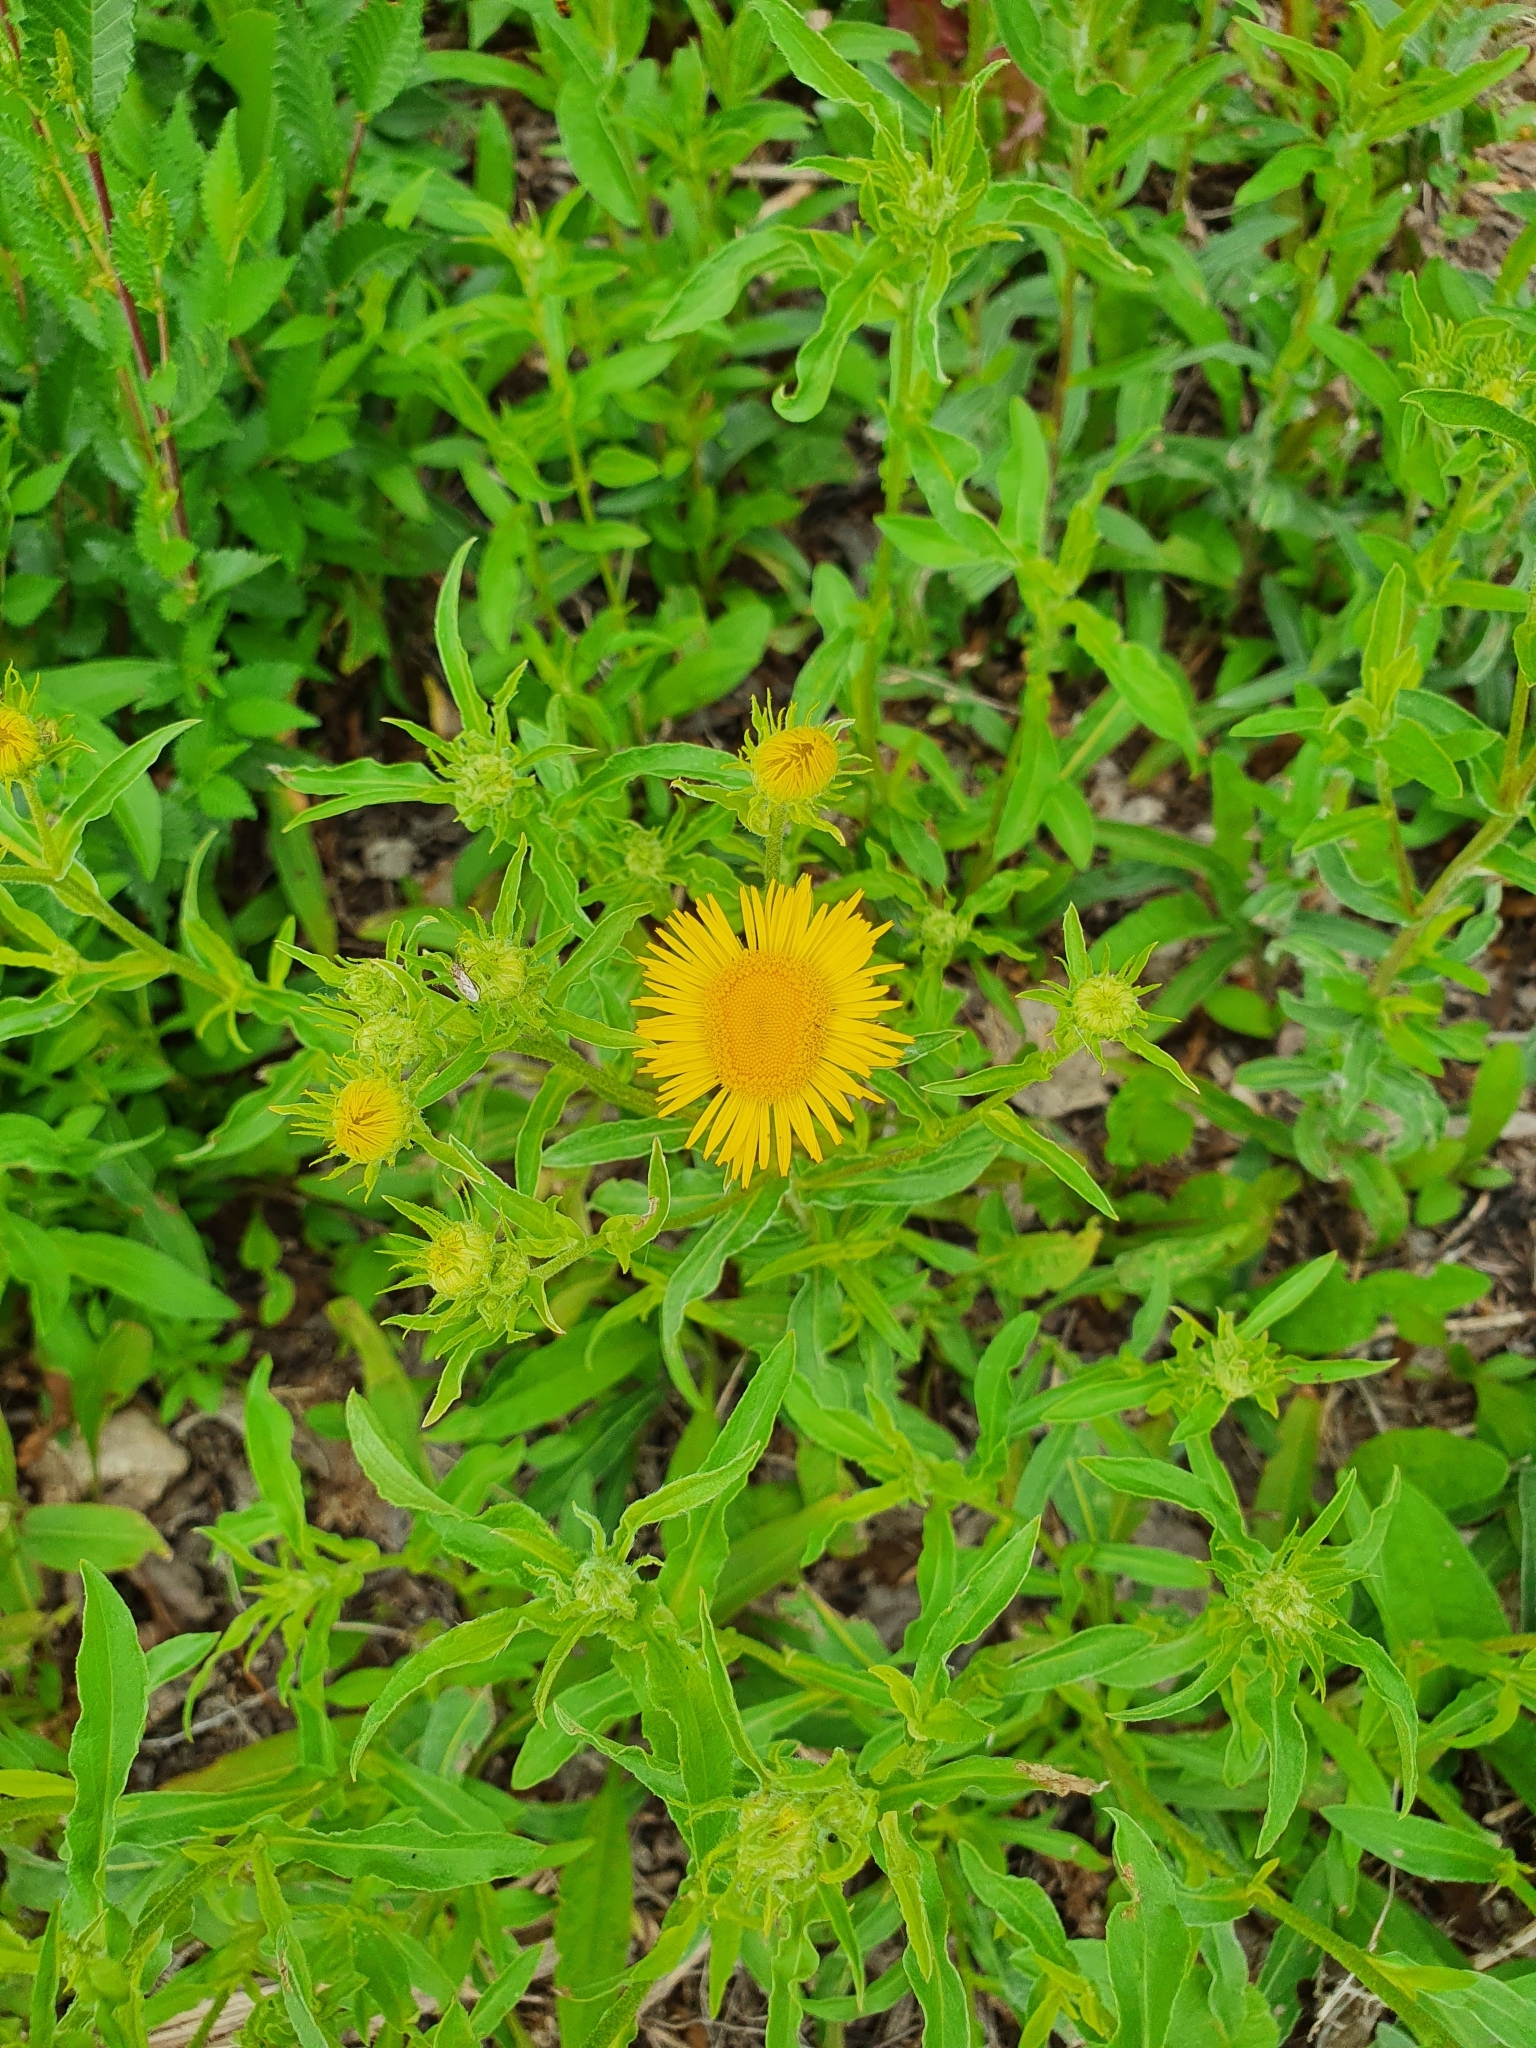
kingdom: Plantae
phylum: Tracheophyta
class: Magnoliopsida
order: Asterales
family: Asteraceae
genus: Pentanema
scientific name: Pentanema britannicum
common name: British elecampane
